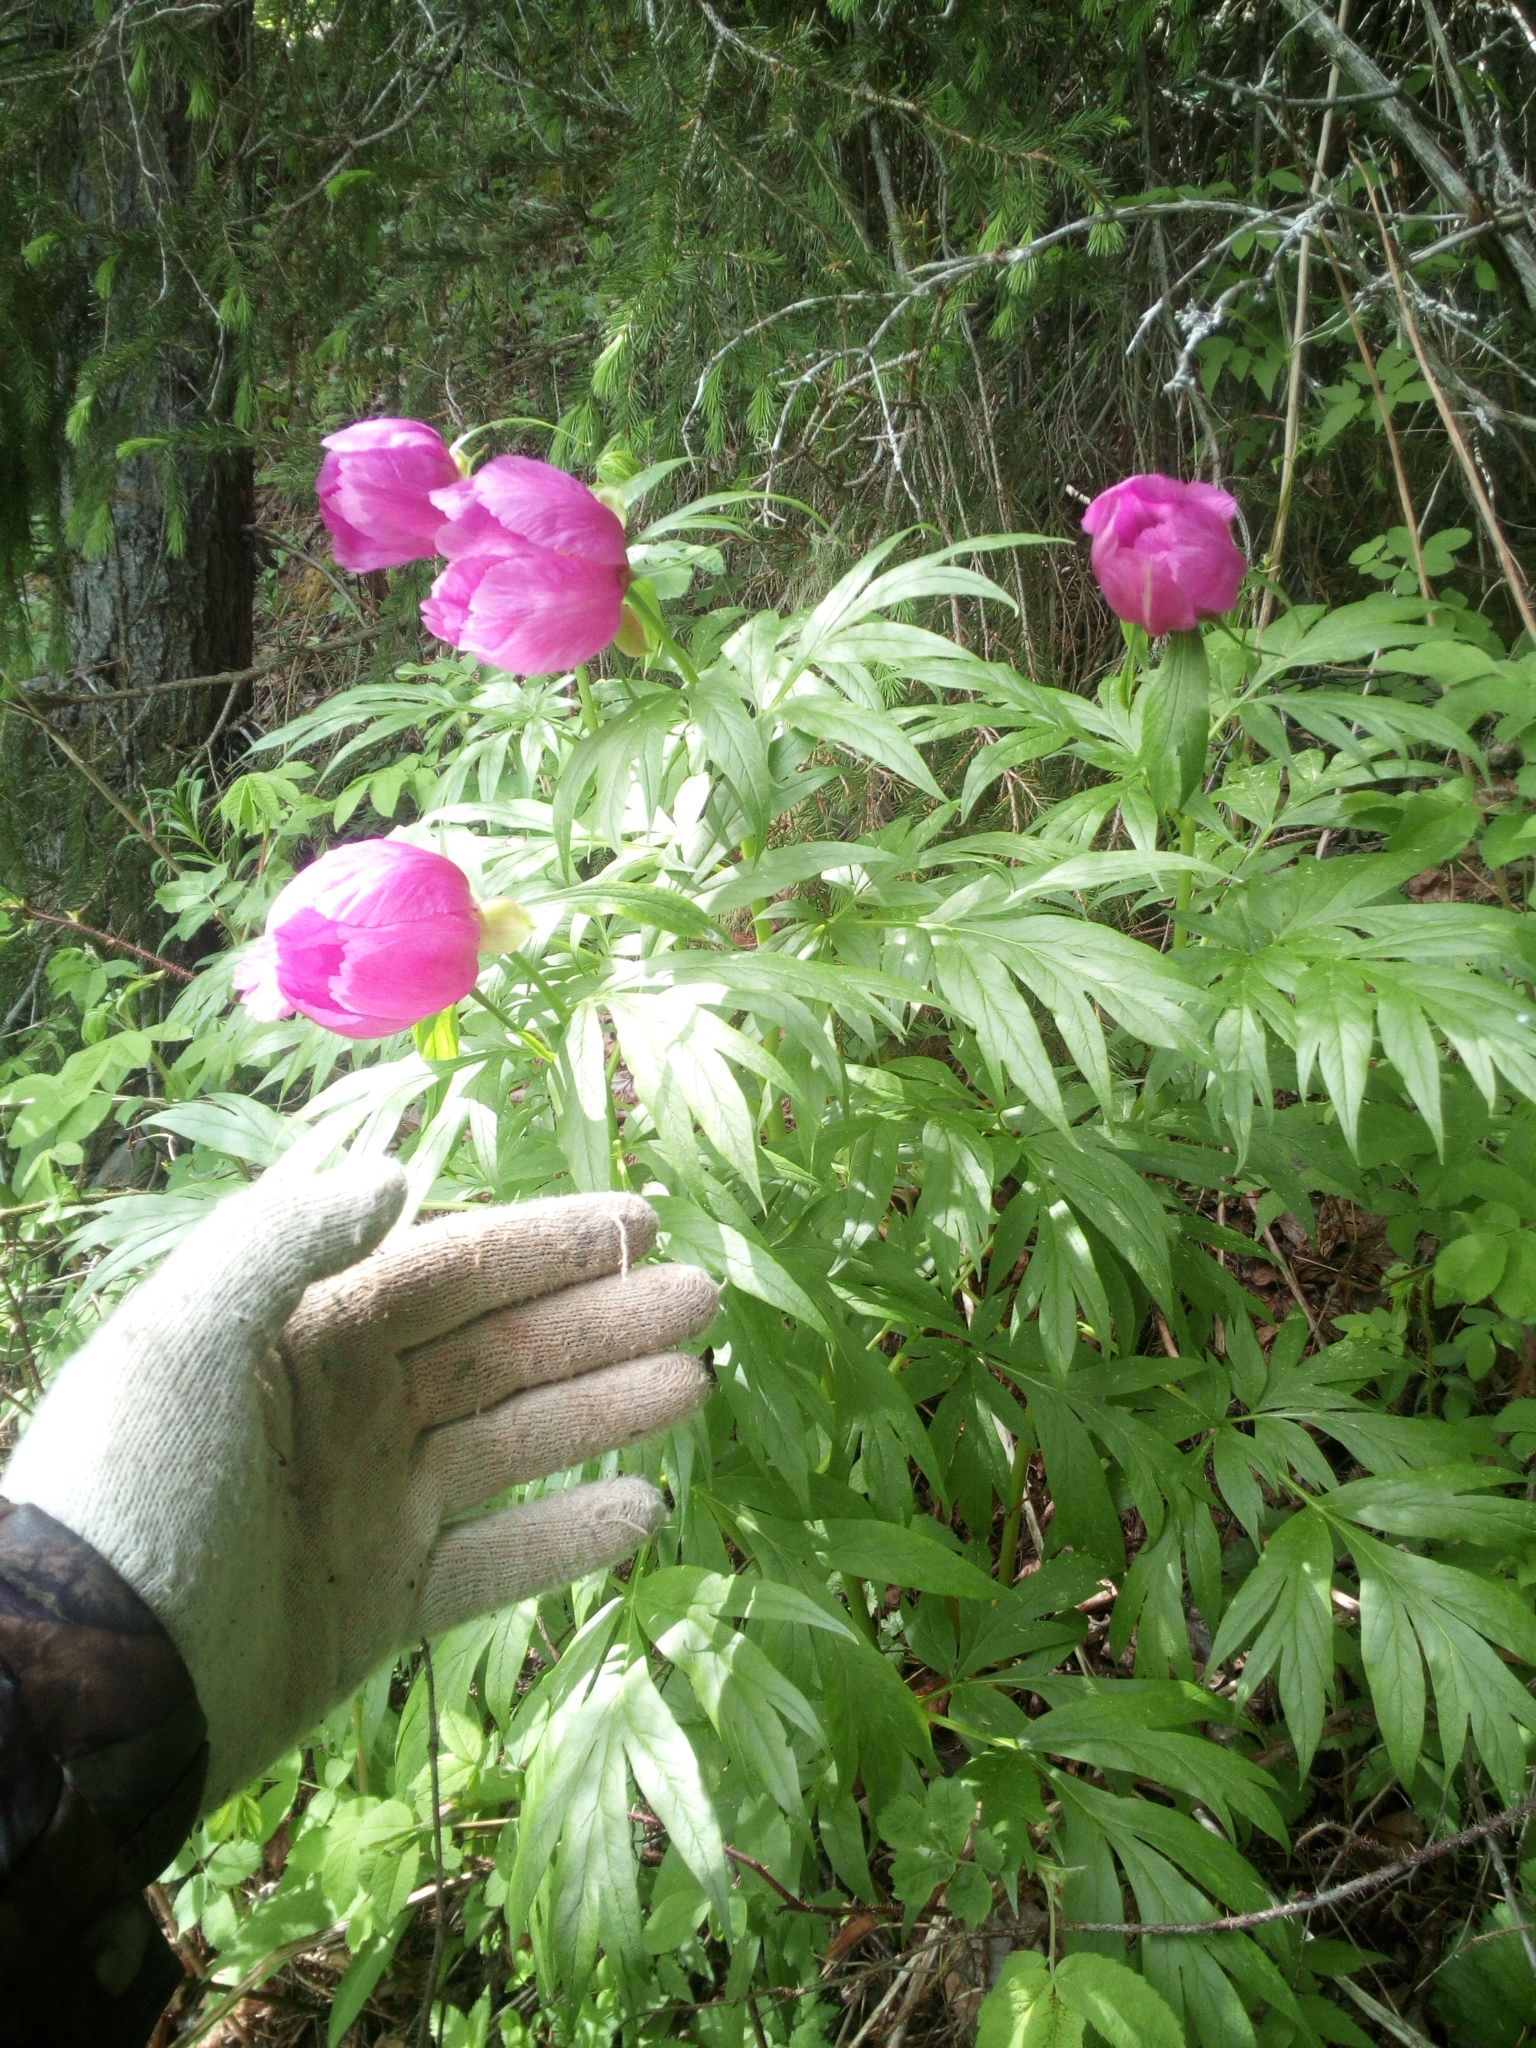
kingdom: Plantae
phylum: Tracheophyta
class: Magnoliopsida
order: Saxifragales
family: Paeoniaceae
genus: Paeonia
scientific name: Paeonia anomala
